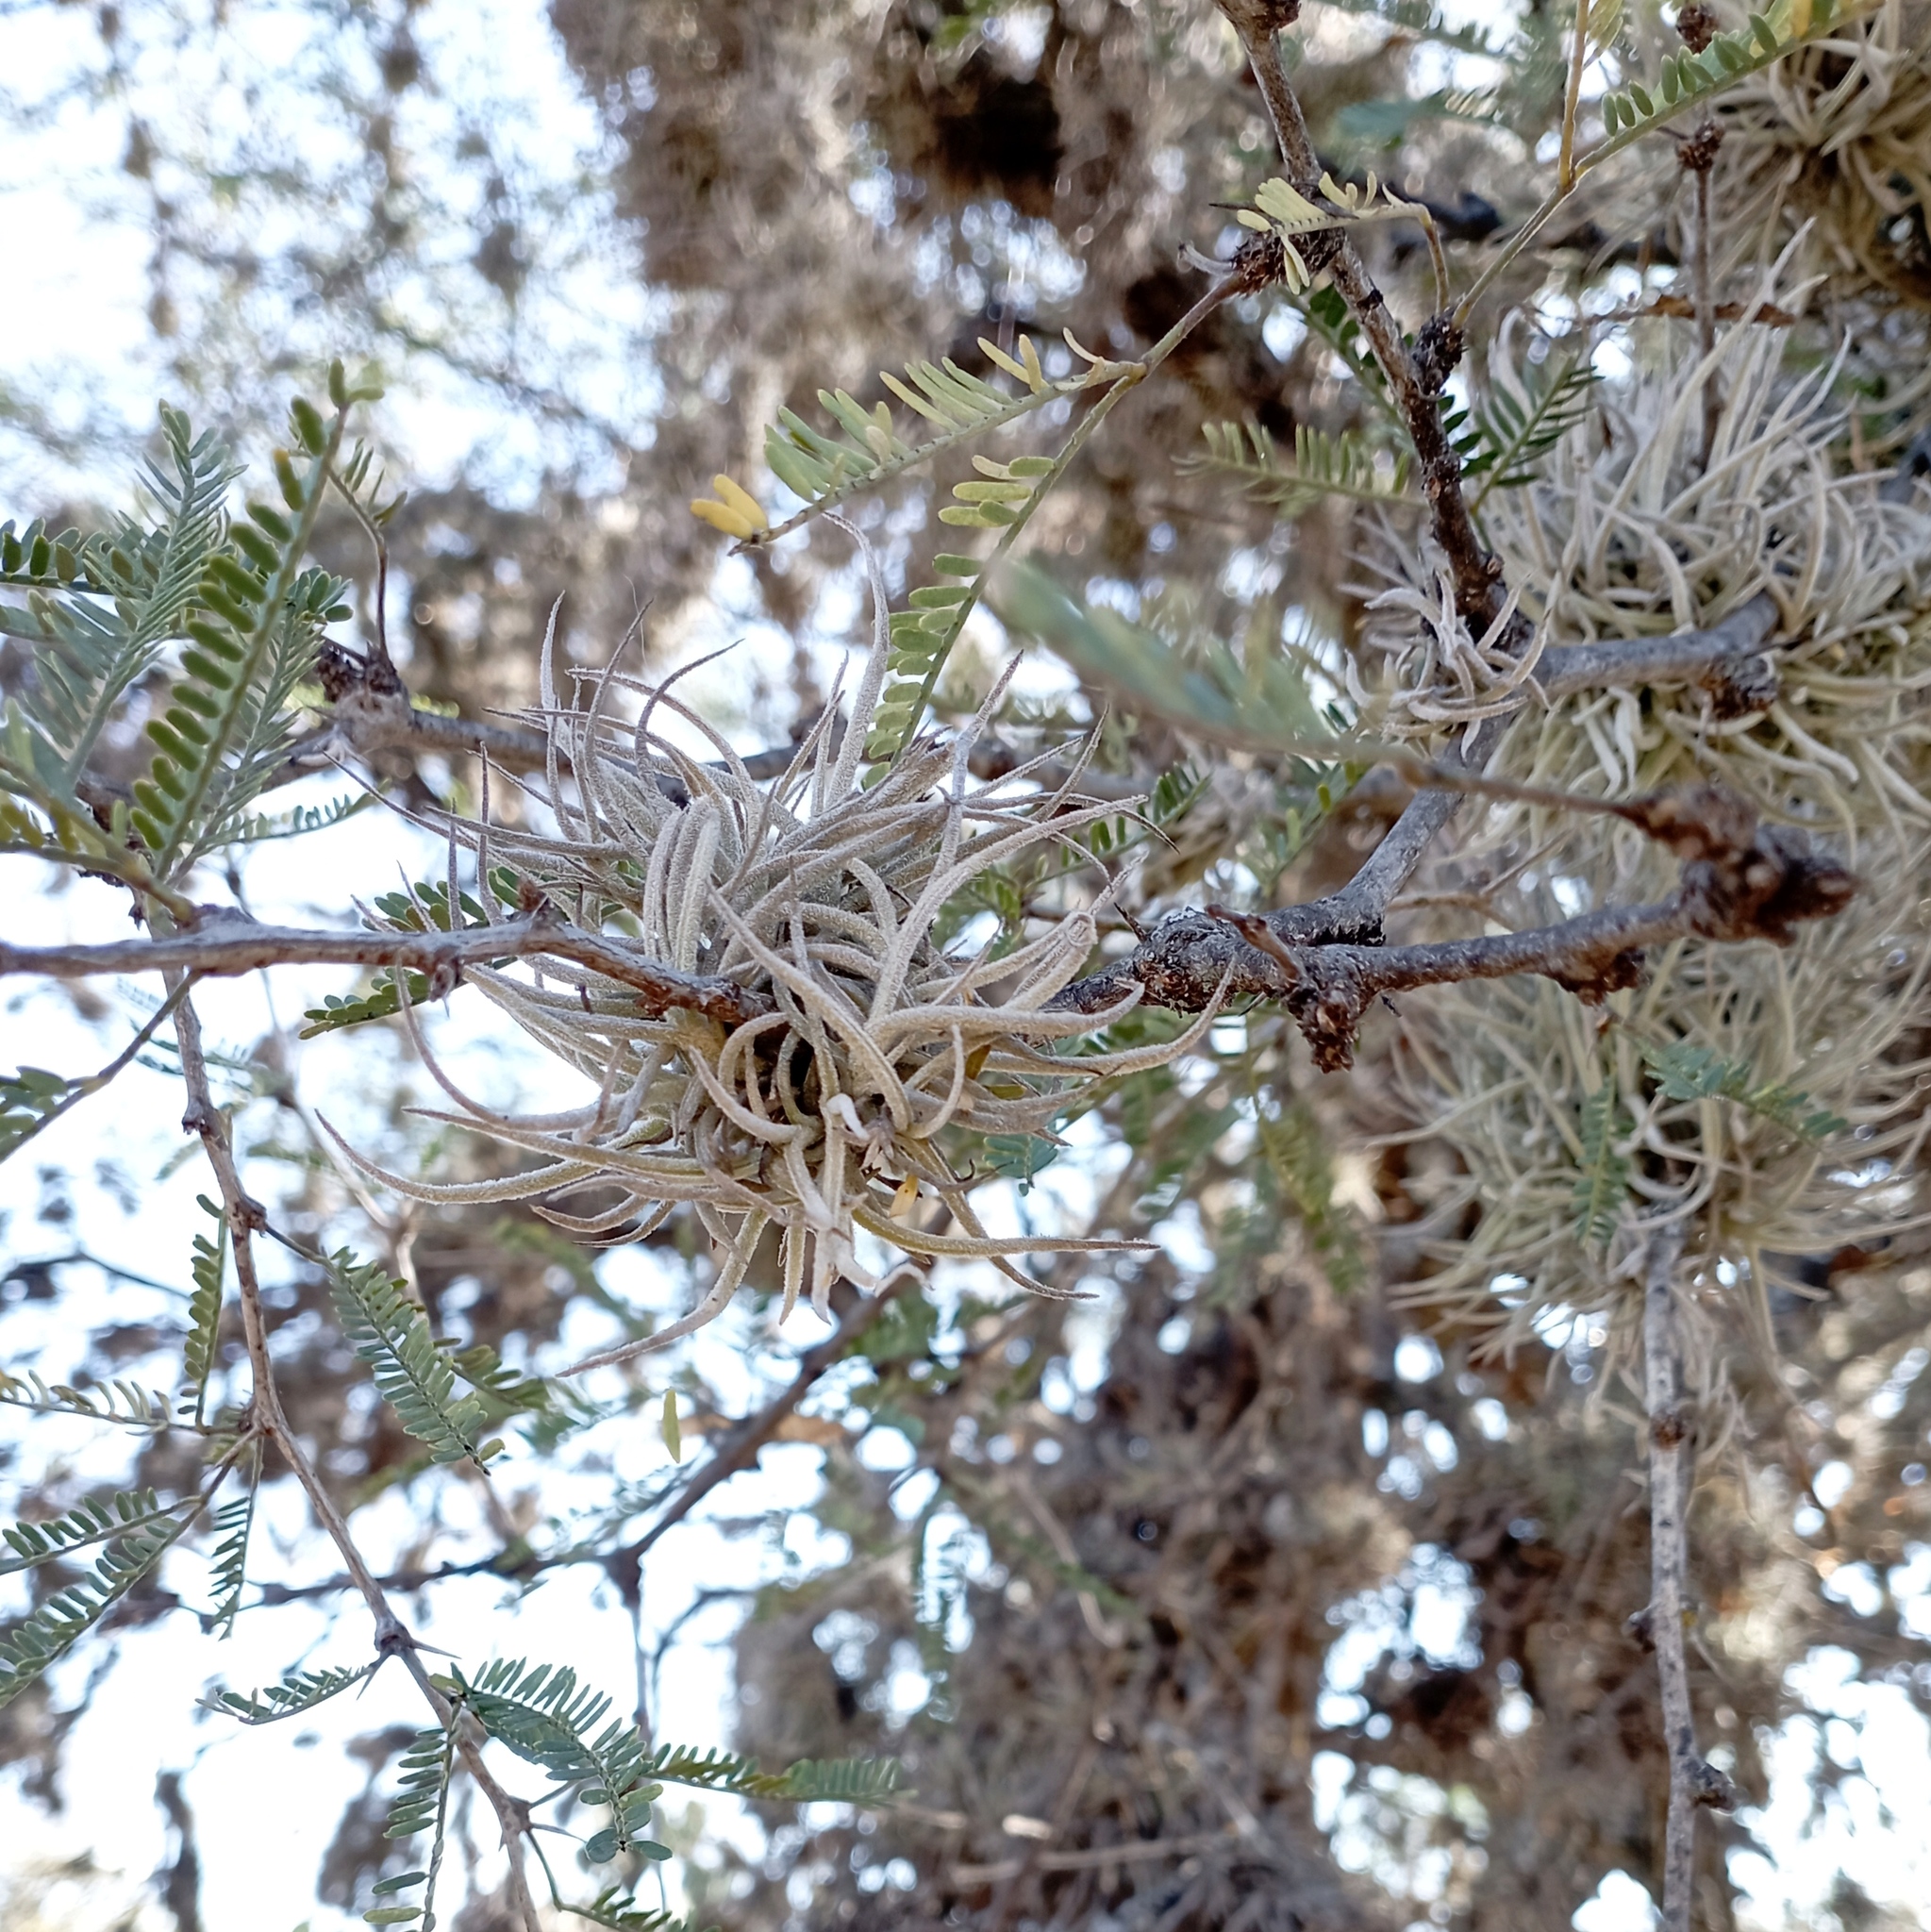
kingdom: Plantae
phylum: Tracheophyta
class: Liliopsida
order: Poales
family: Bromeliaceae
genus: Tillandsia
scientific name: Tillandsia recurvata
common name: Small ballmoss
